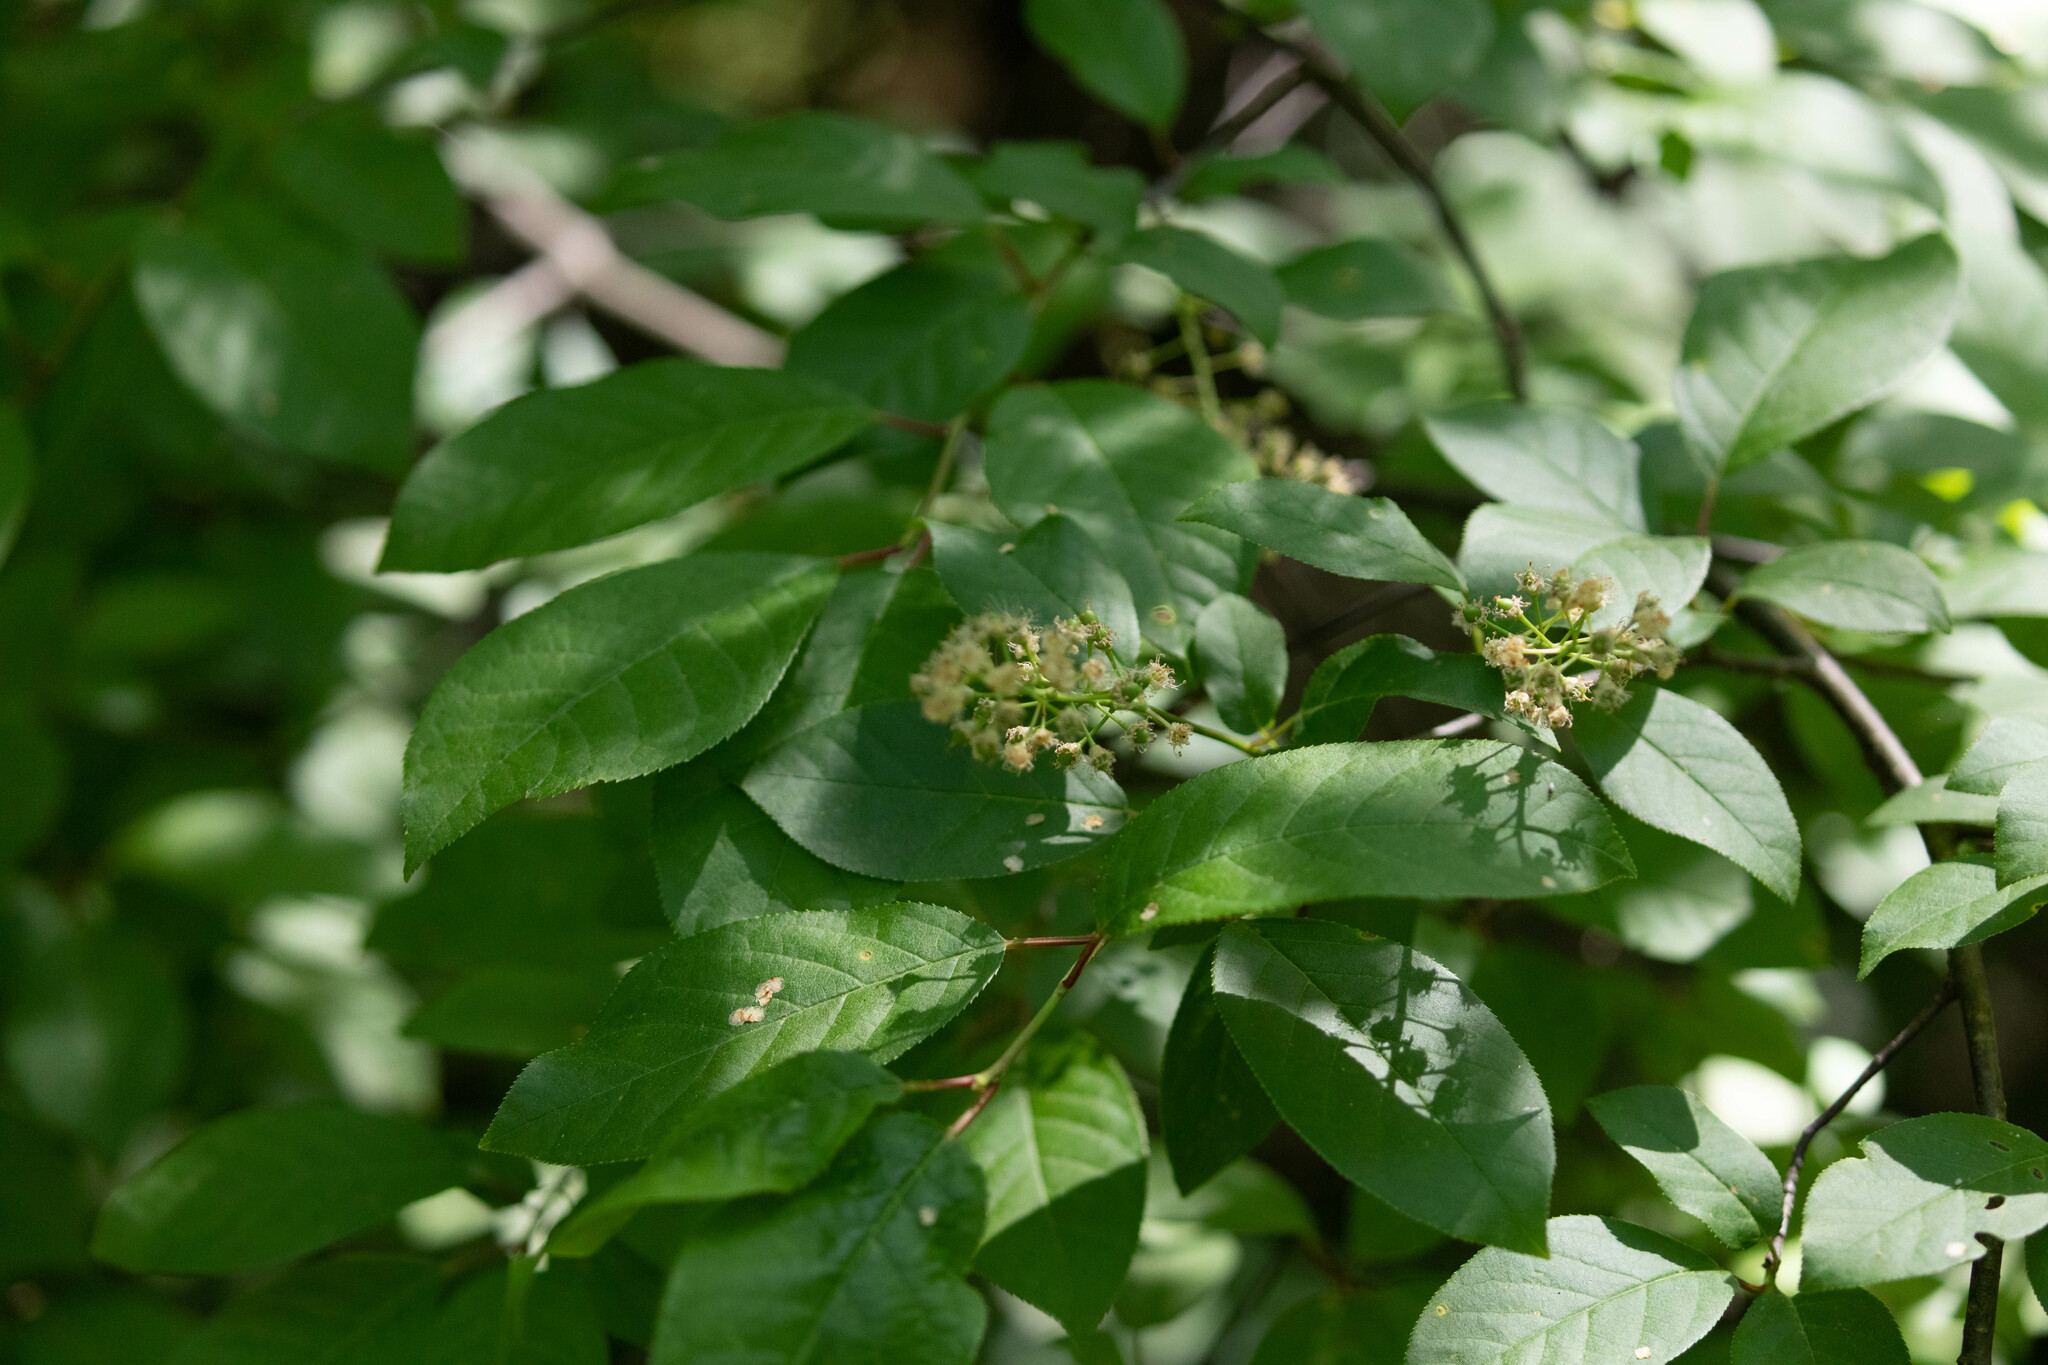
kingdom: Plantae
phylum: Tracheophyta
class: Magnoliopsida
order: Rosales
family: Rosaceae
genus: Prunus
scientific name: Prunus virginiana
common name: Chokecherry
